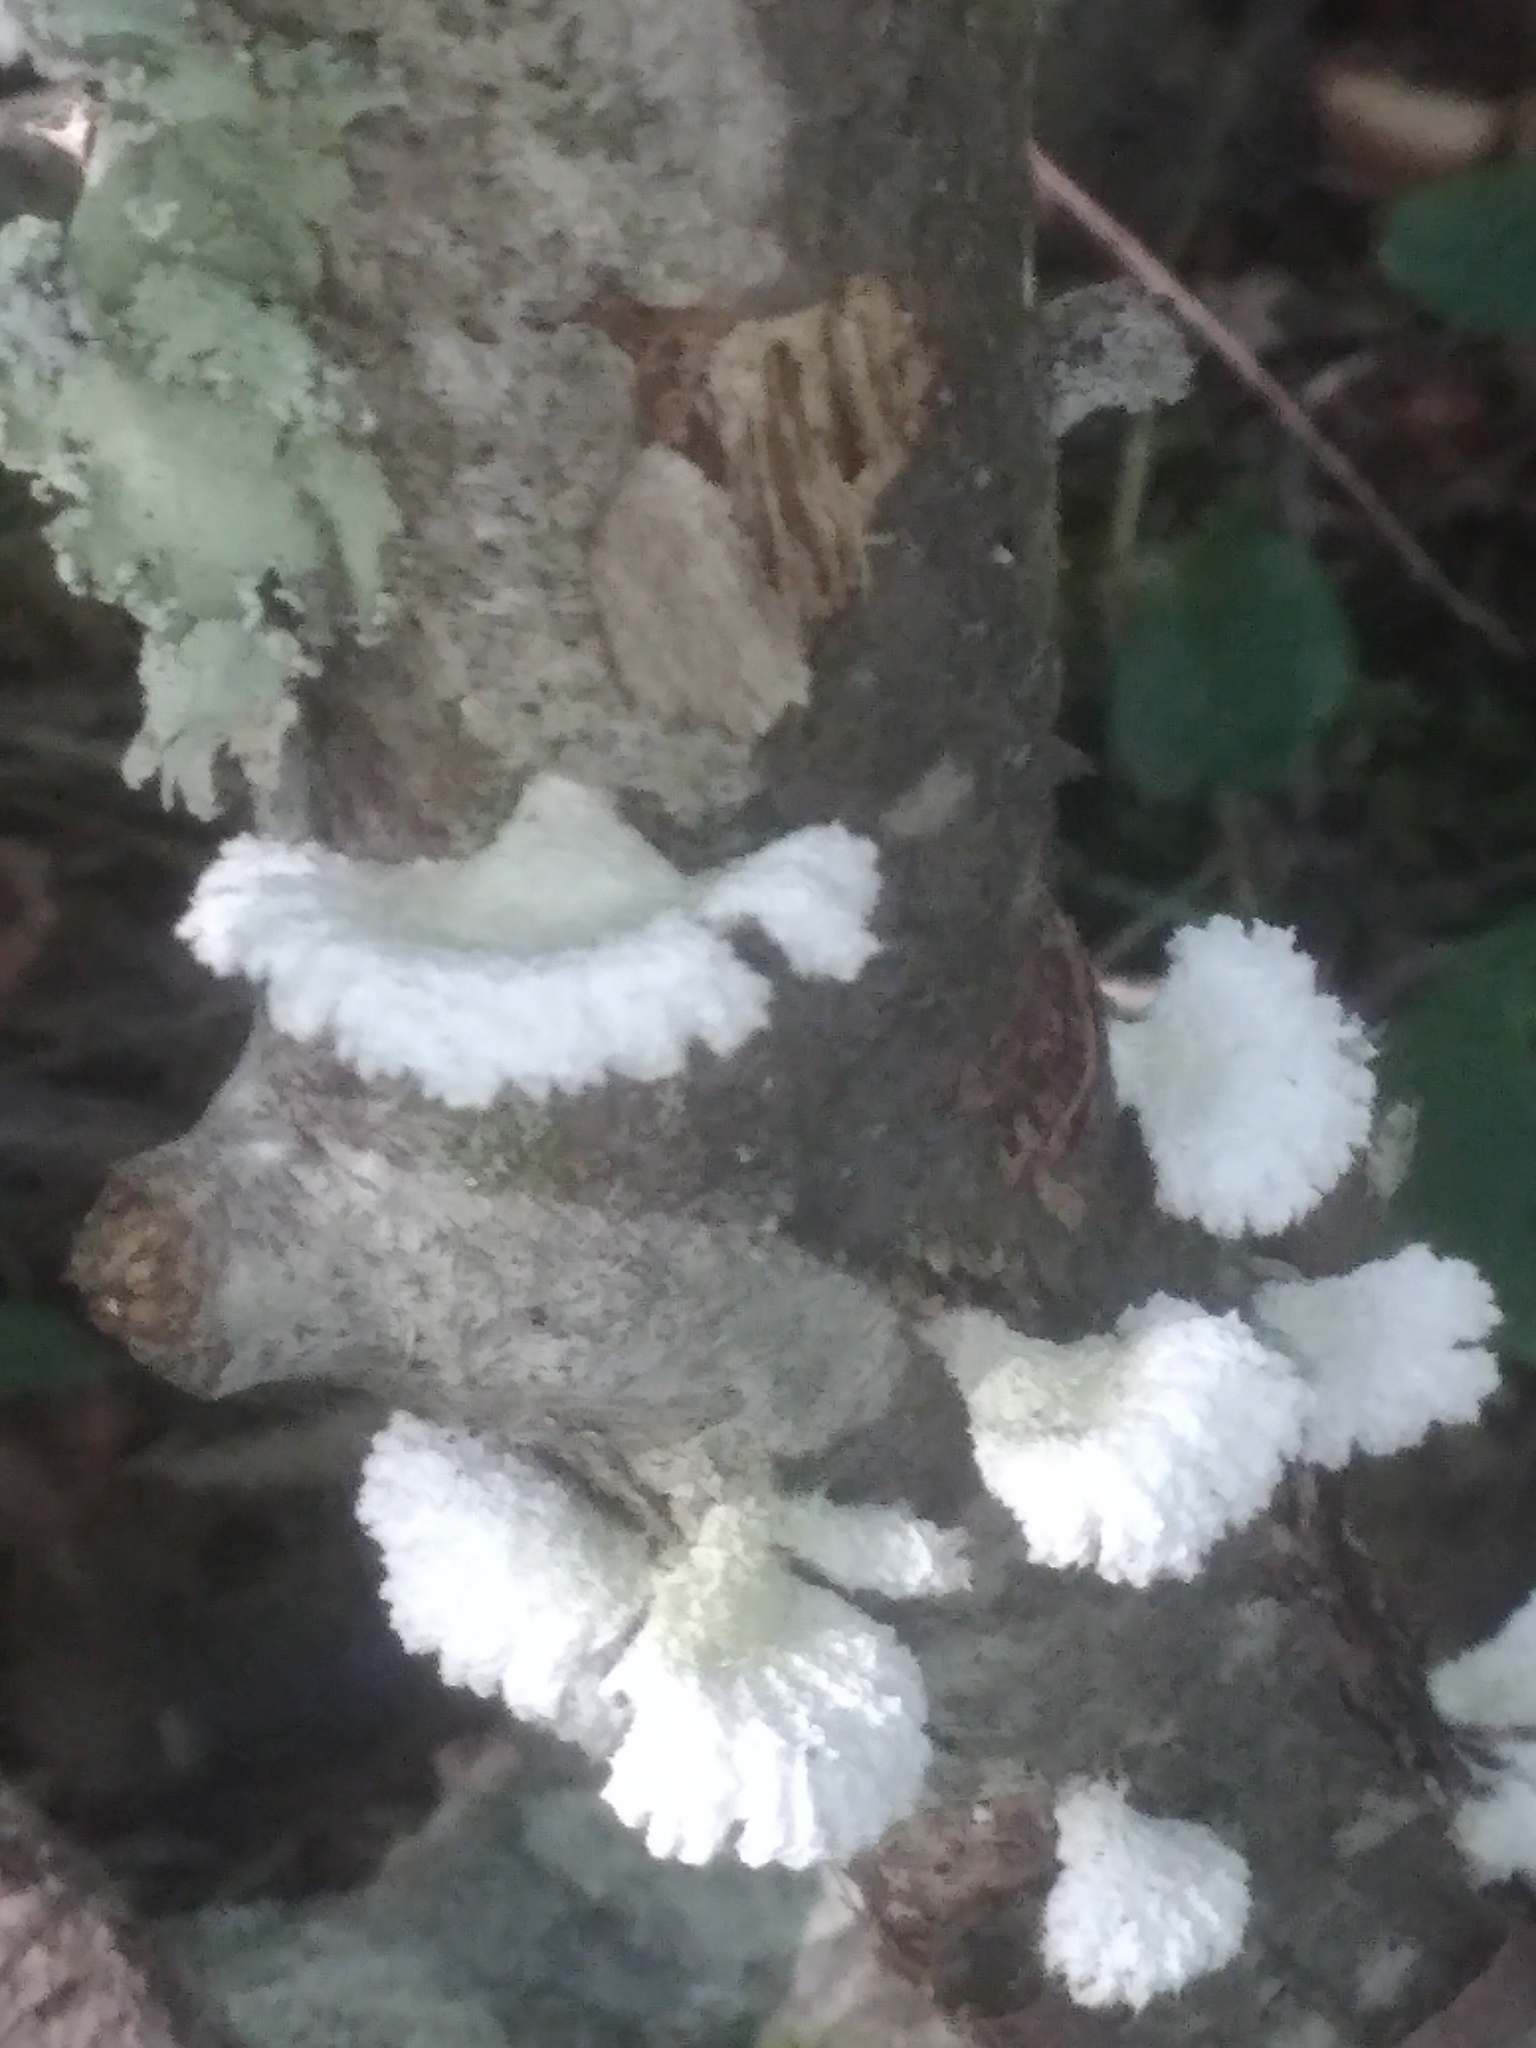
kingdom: Fungi
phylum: Basidiomycota
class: Agaricomycetes
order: Agaricales
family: Schizophyllaceae
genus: Schizophyllum
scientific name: Schizophyllum commune
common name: Common porecrust
